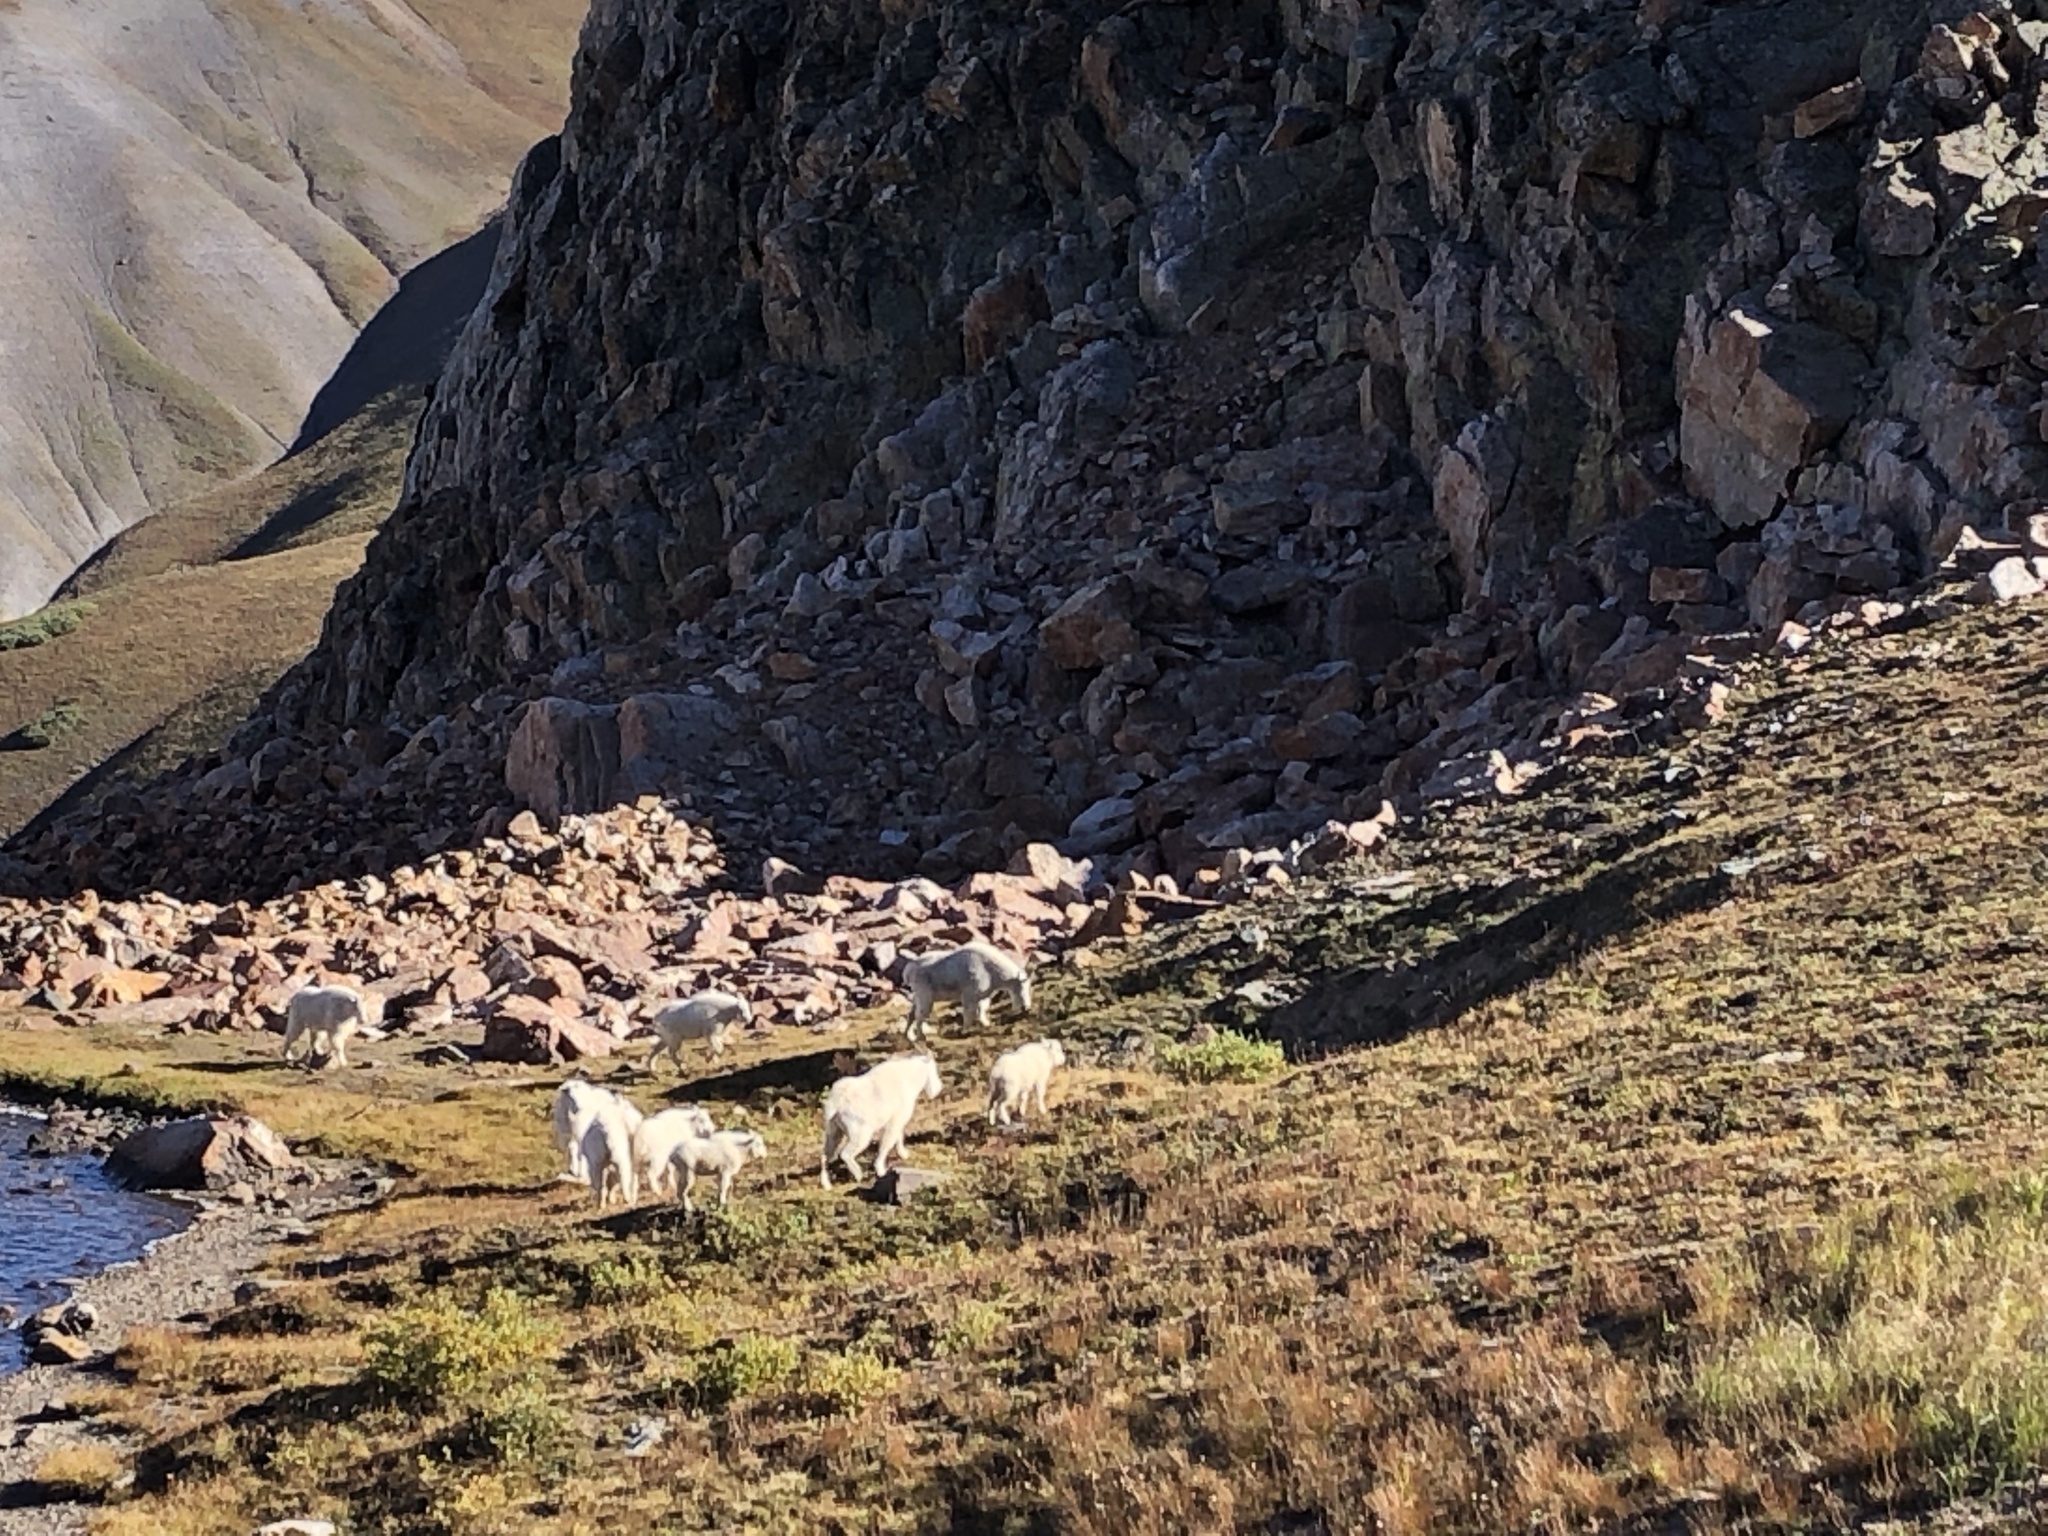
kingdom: Animalia
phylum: Chordata
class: Mammalia
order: Artiodactyla
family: Bovidae
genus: Oreamnos
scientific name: Oreamnos americanus
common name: Mountain goat
